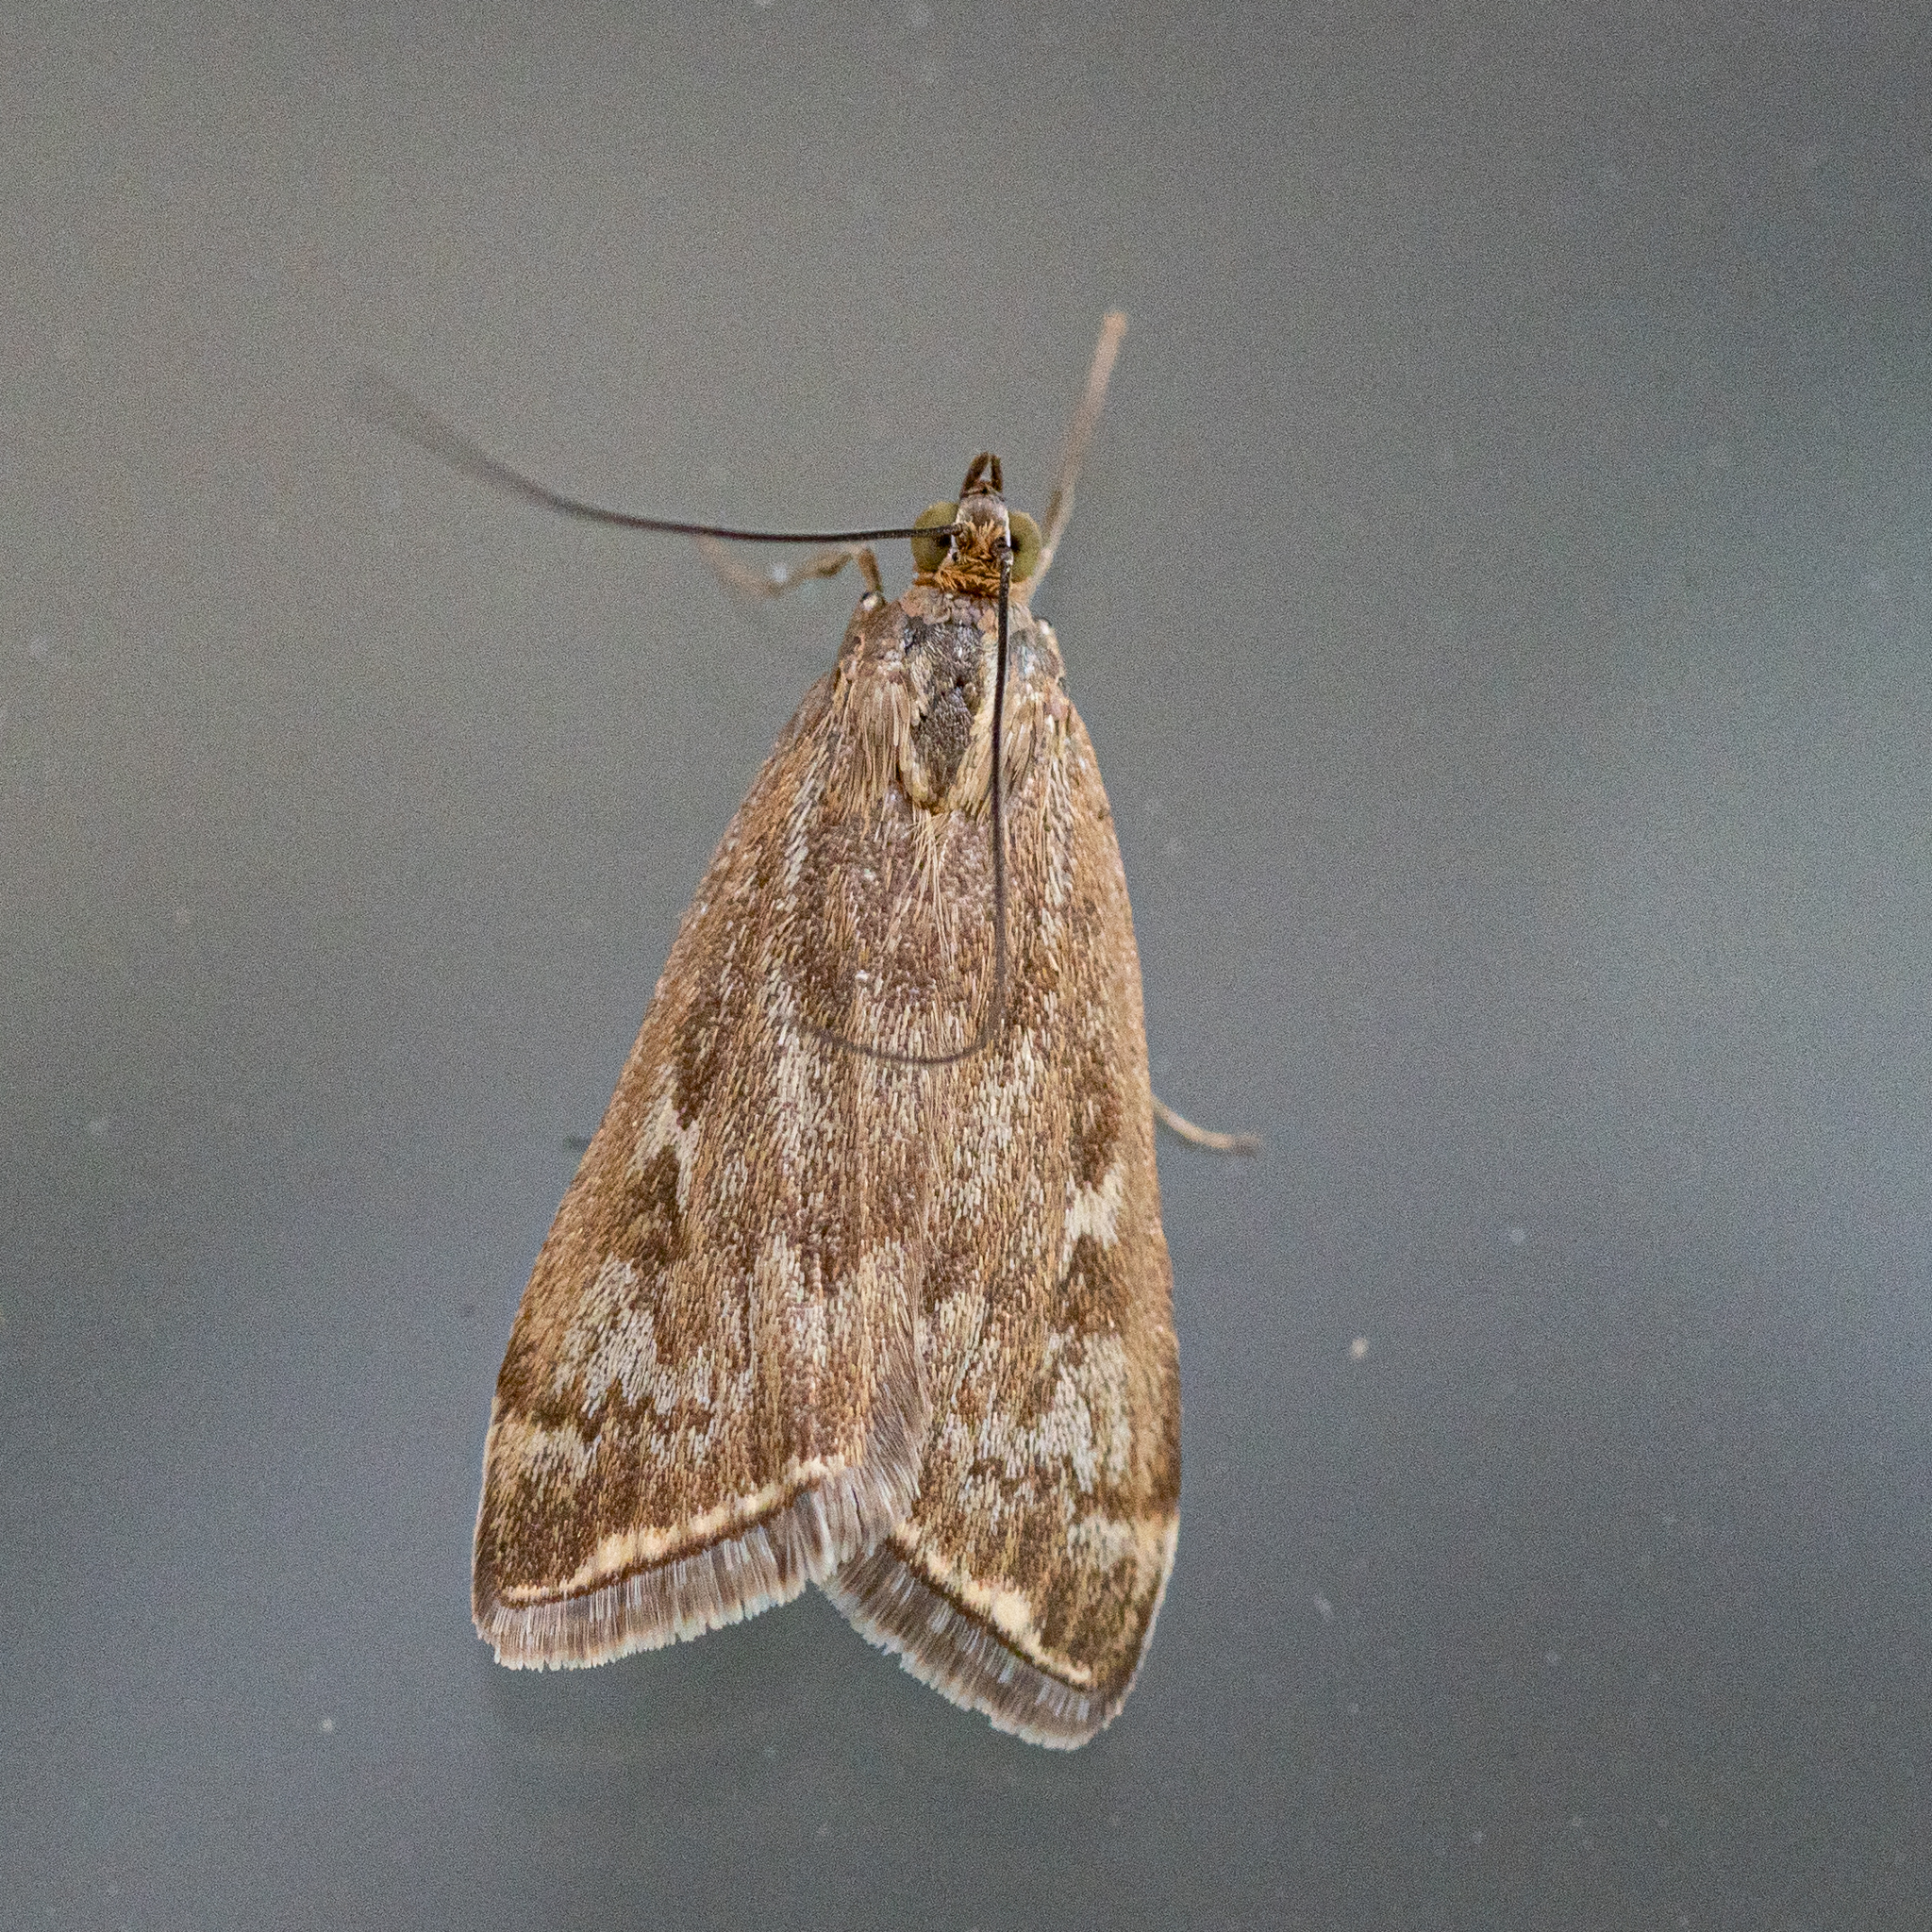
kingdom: Animalia
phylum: Arthropoda
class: Insecta
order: Lepidoptera
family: Crambidae
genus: Loxostege
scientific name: Loxostege sticticalis
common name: Crambid moth
